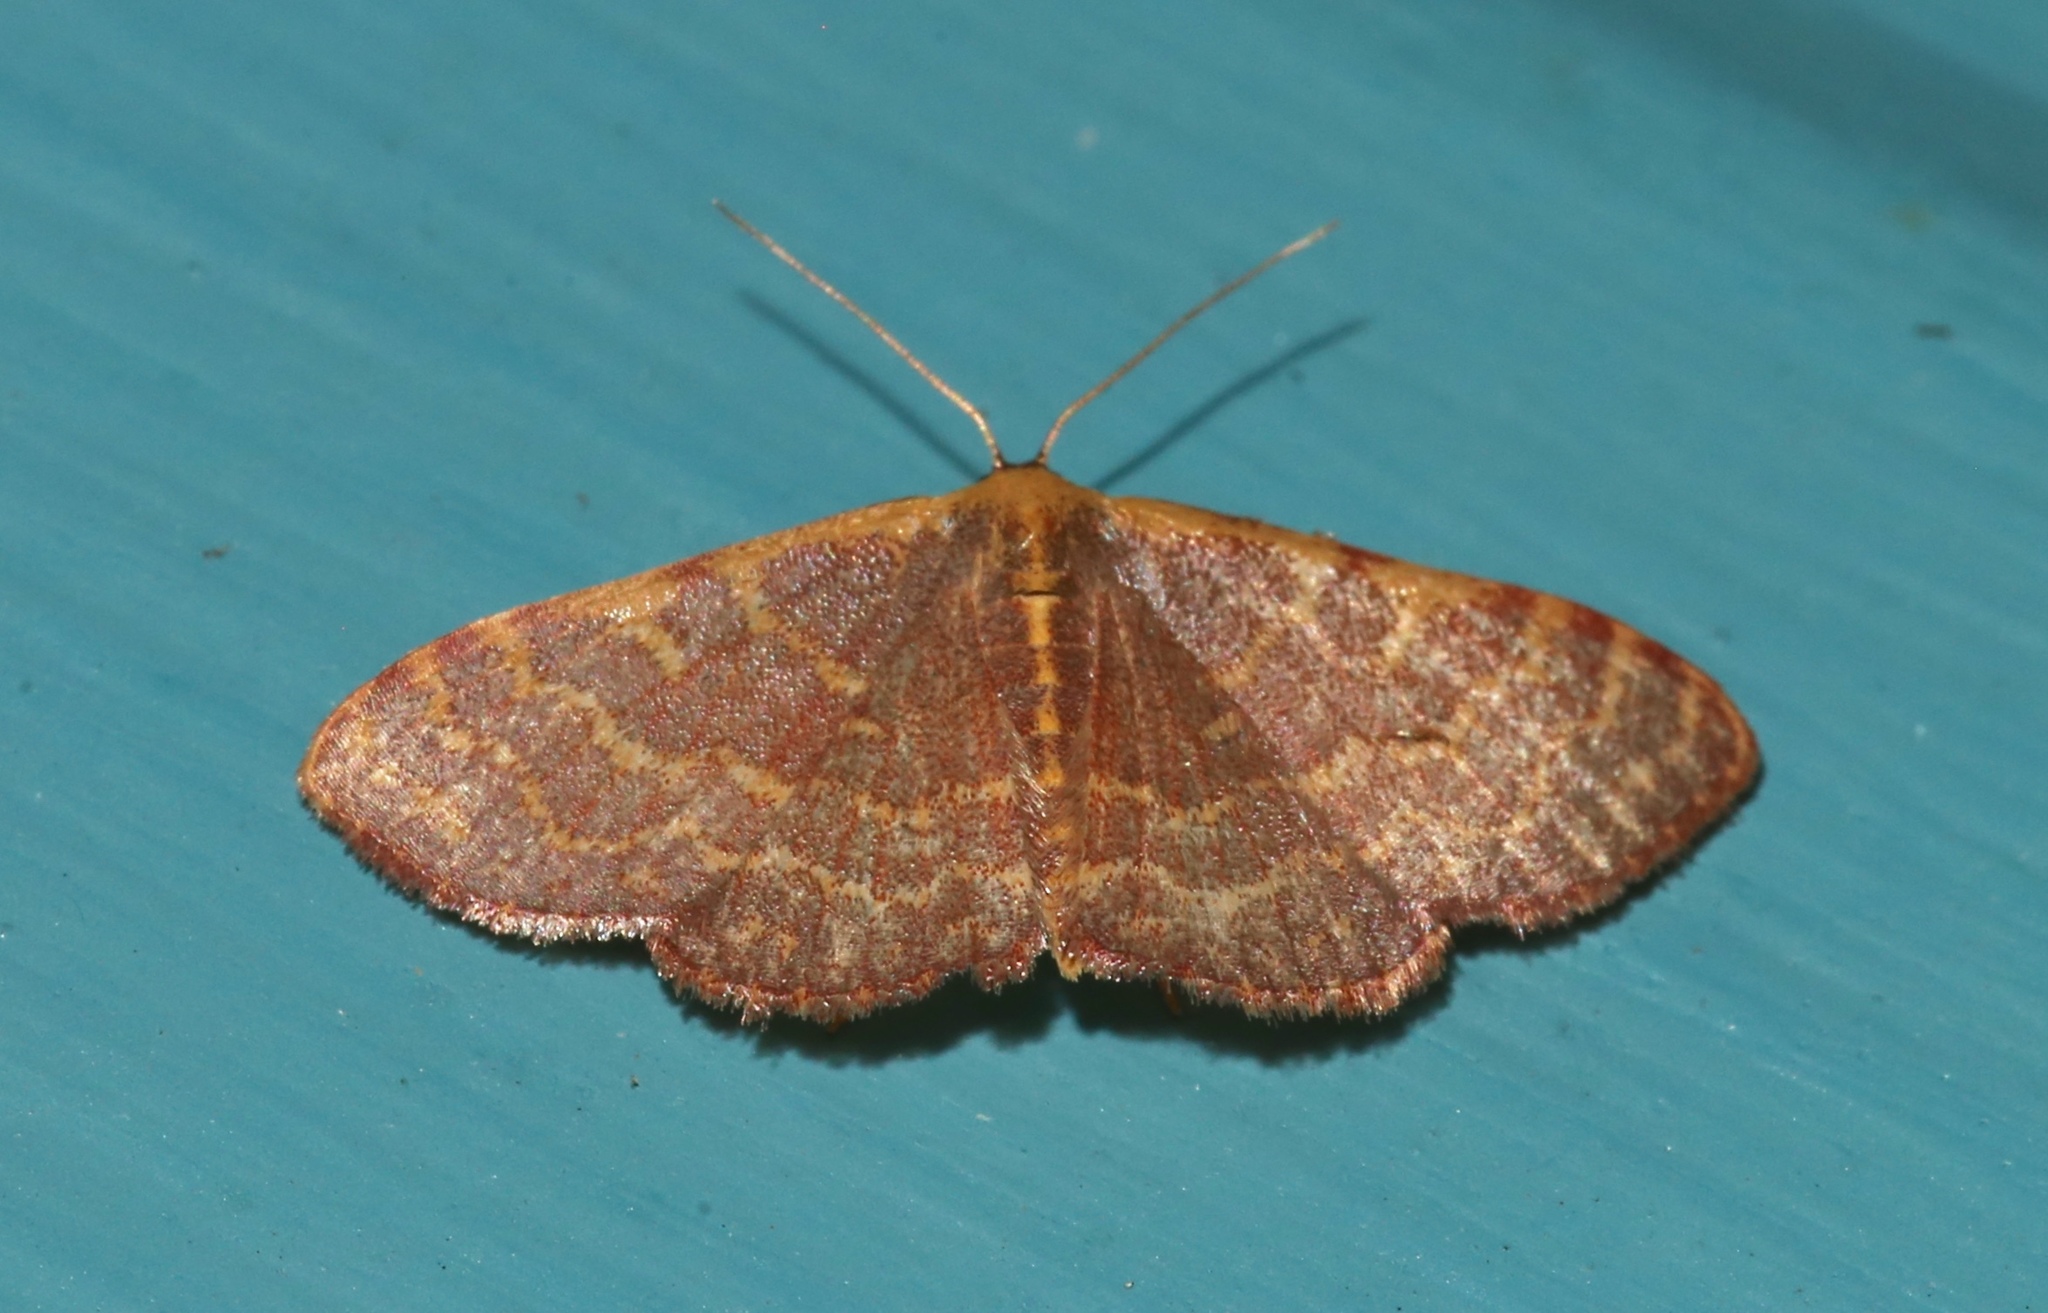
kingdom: Animalia
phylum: Arthropoda
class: Insecta
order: Lepidoptera
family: Geometridae
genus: Leptostales
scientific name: Leptostales pannaria
